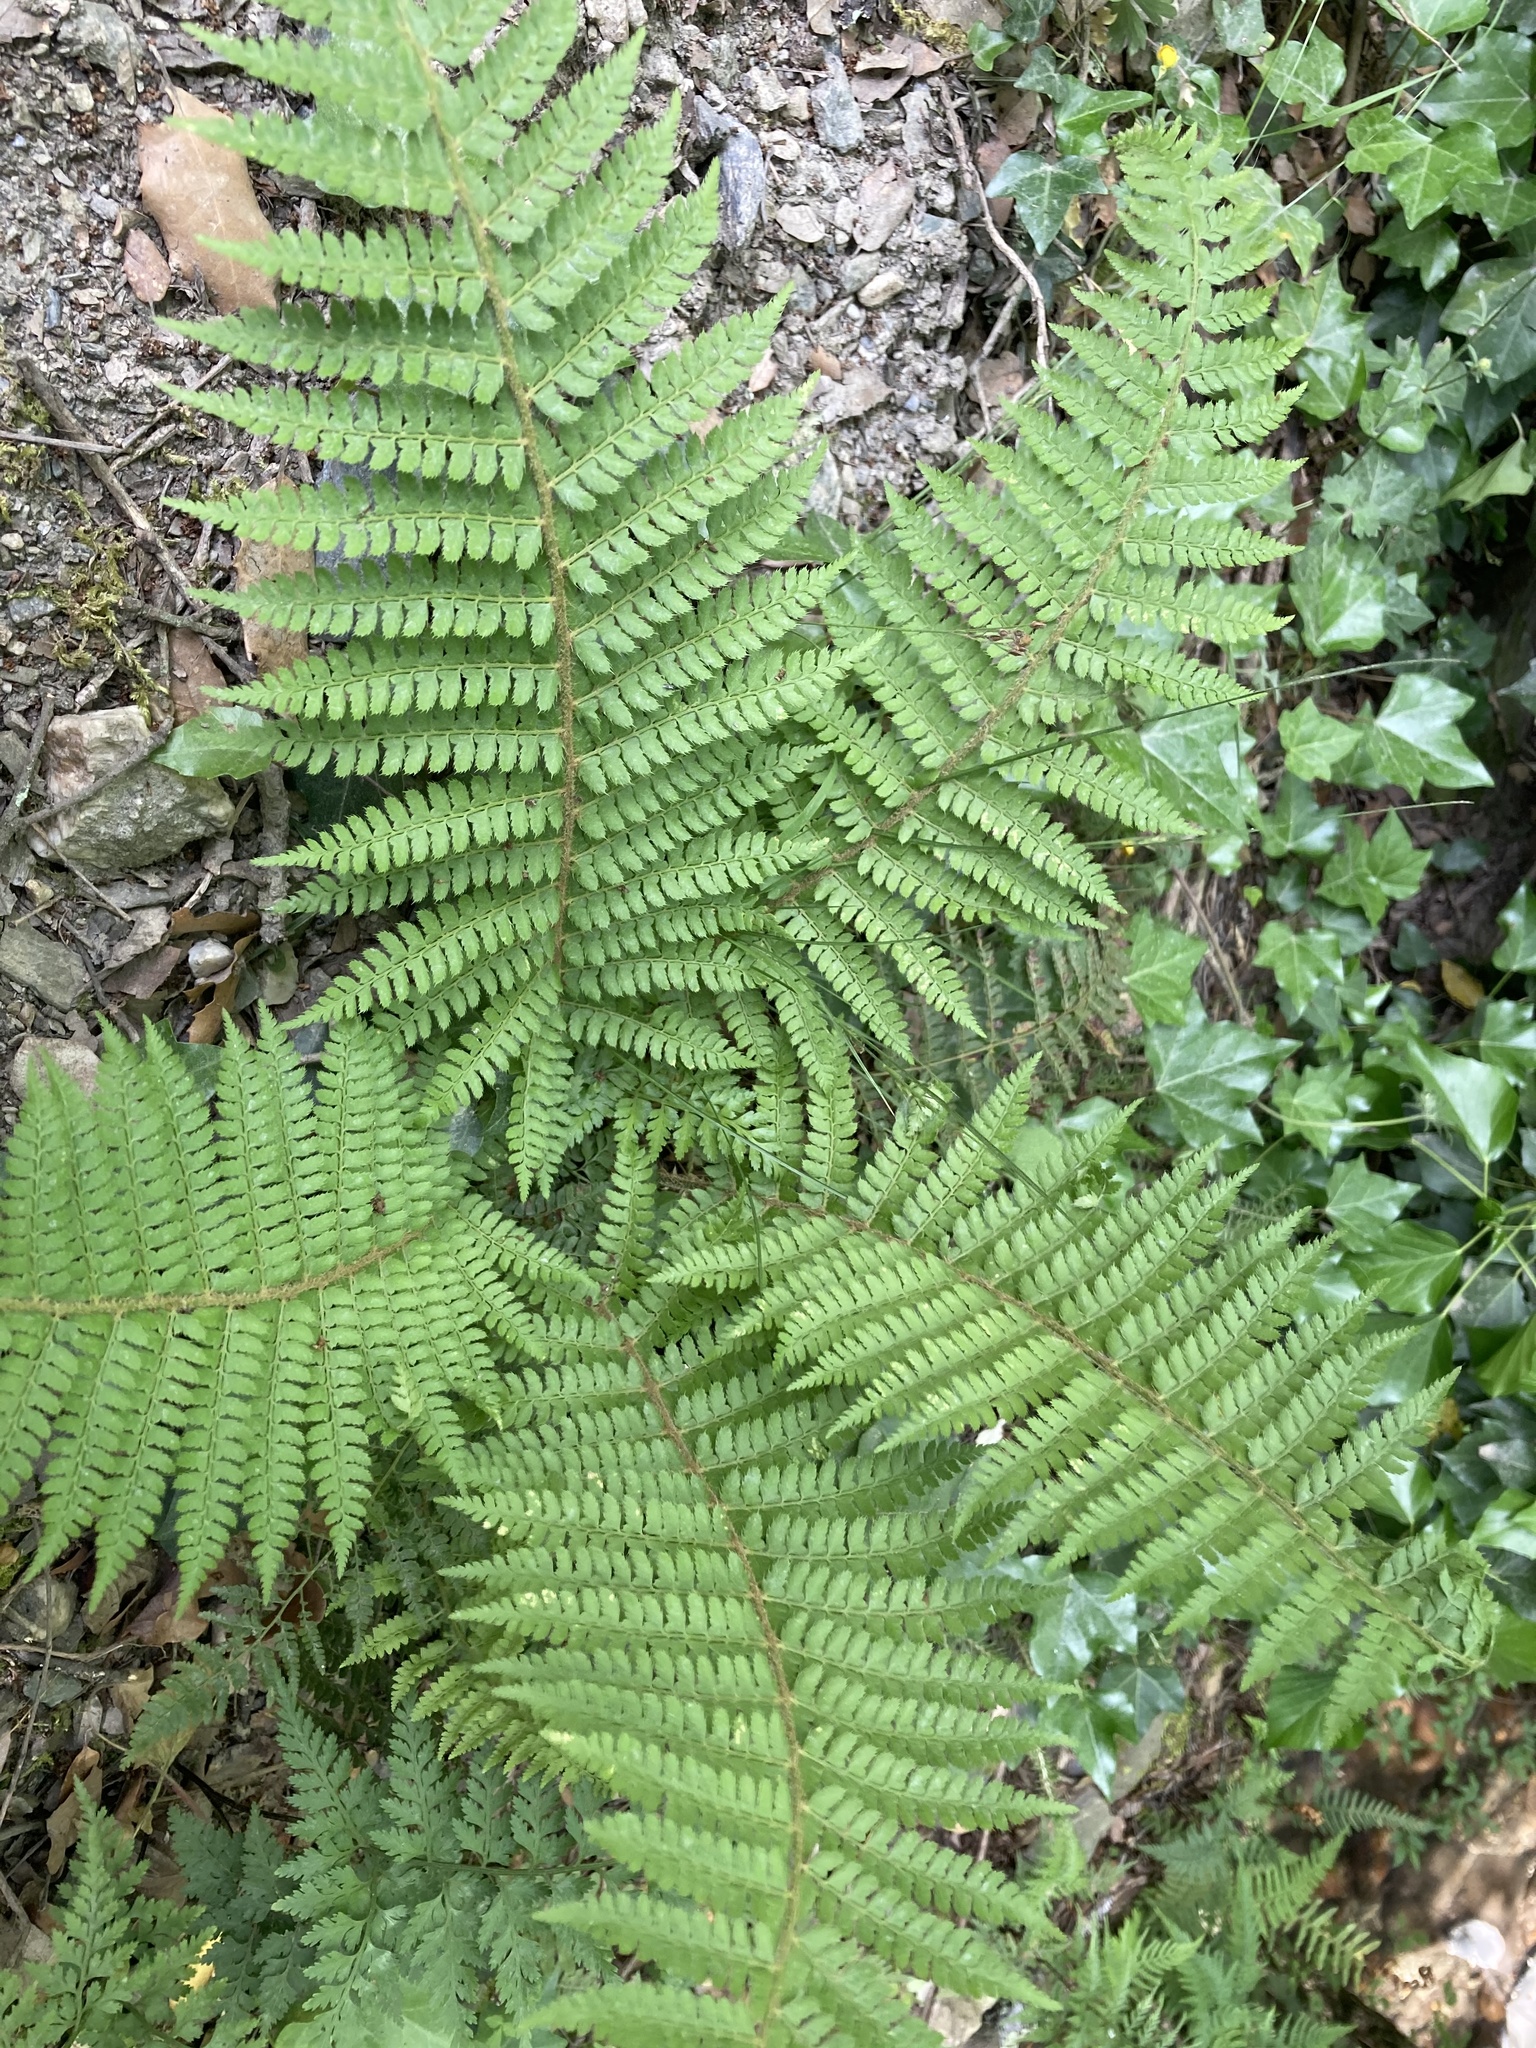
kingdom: Plantae
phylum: Tracheophyta
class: Polypodiopsida
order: Polypodiales
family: Dryopteridaceae
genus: Polystichum
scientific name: Polystichum setiferum
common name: Soft shield-fern
